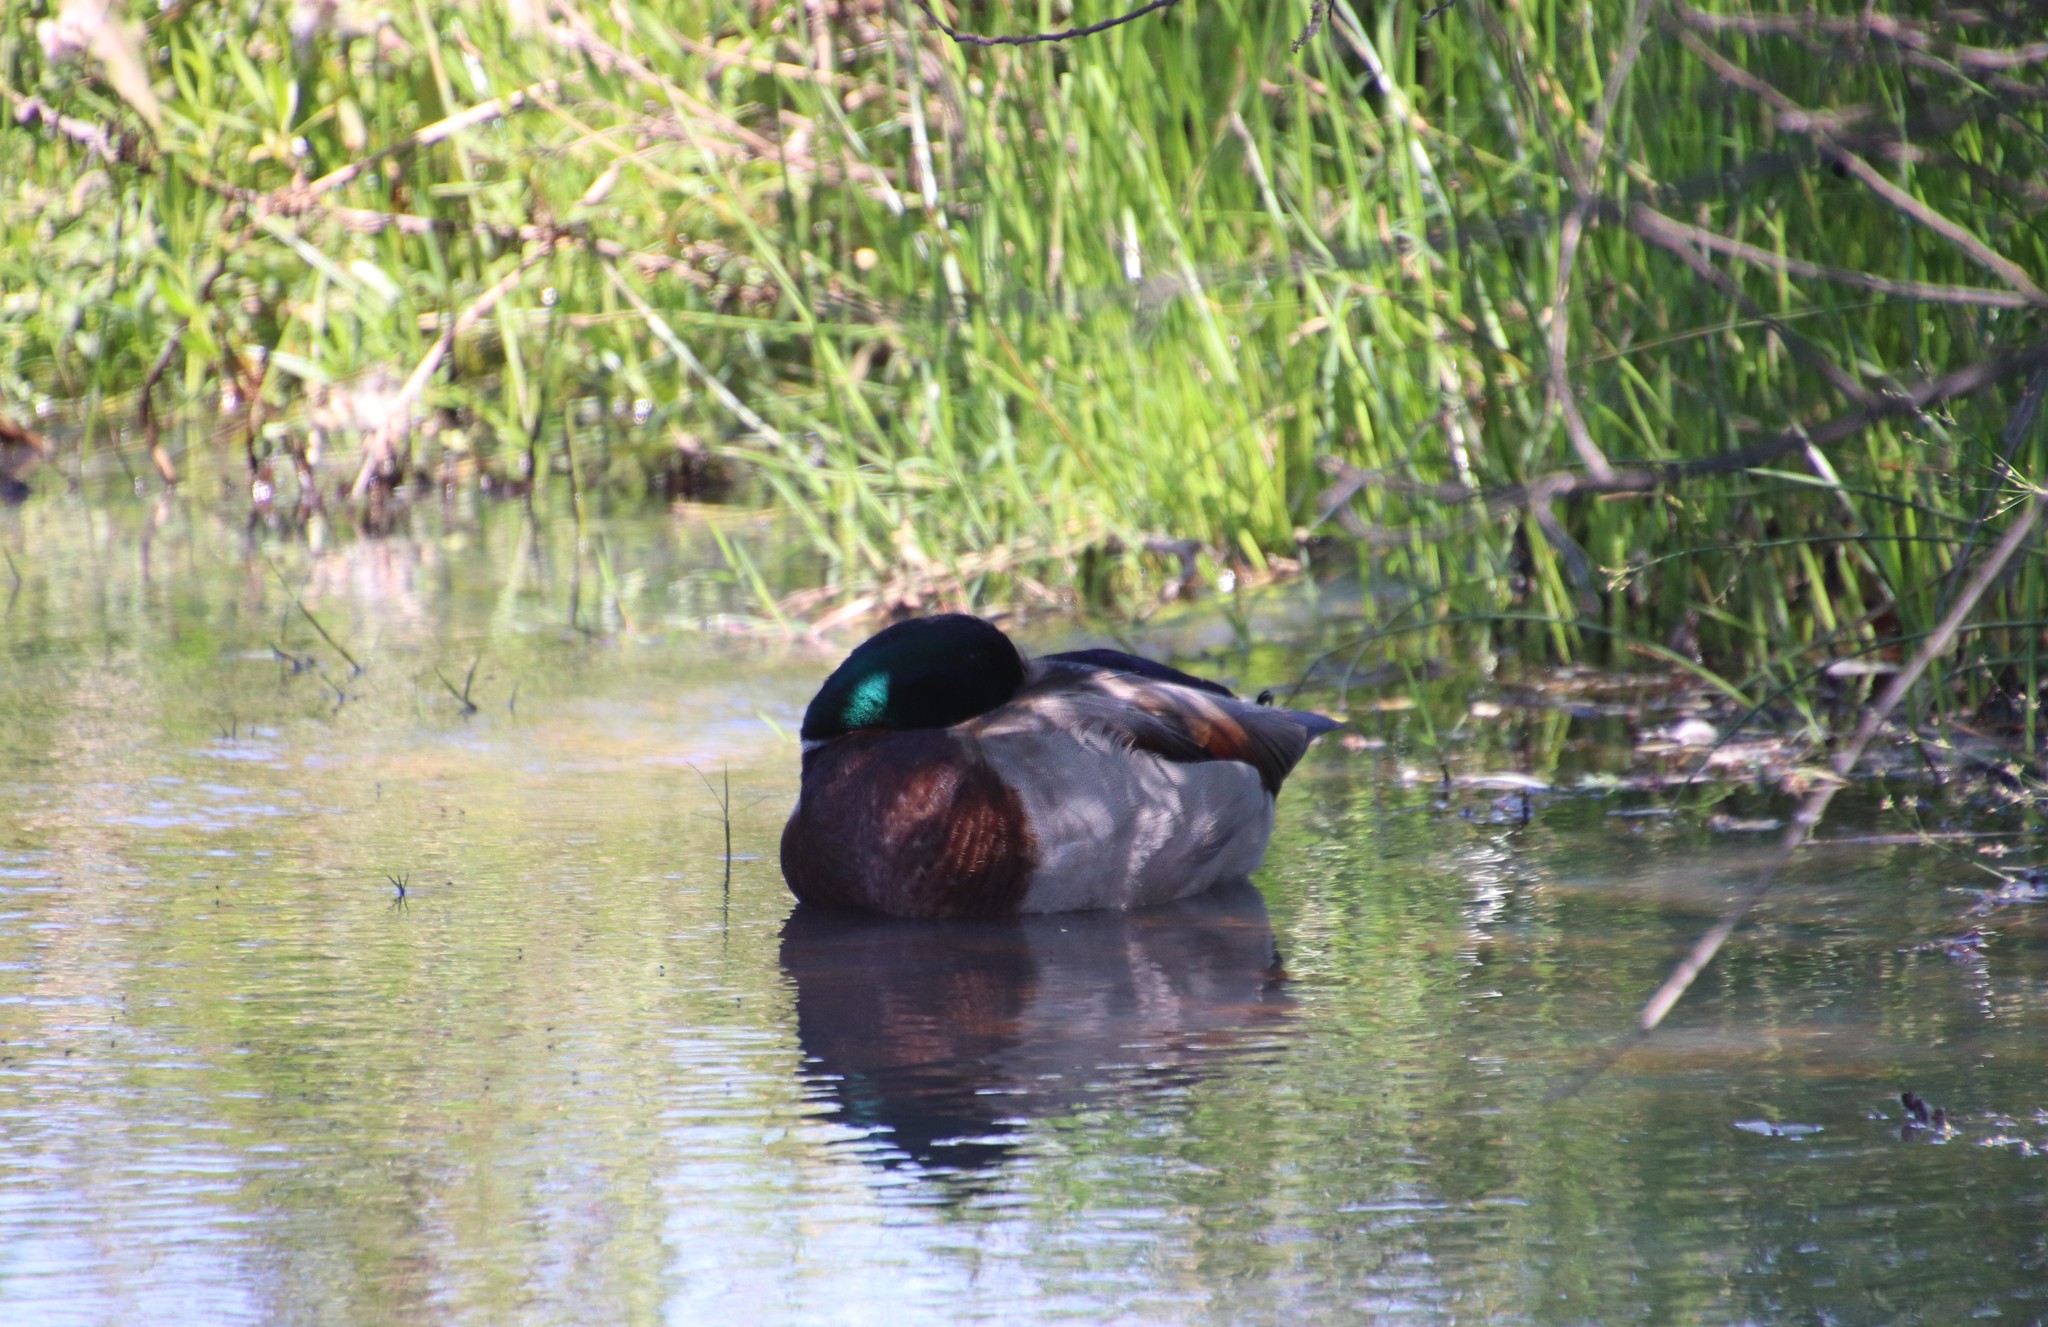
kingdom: Animalia
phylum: Chordata
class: Aves
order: Anseriformes
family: Anatidae
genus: Anas
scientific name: Anas platyrhynchos
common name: Mallard
